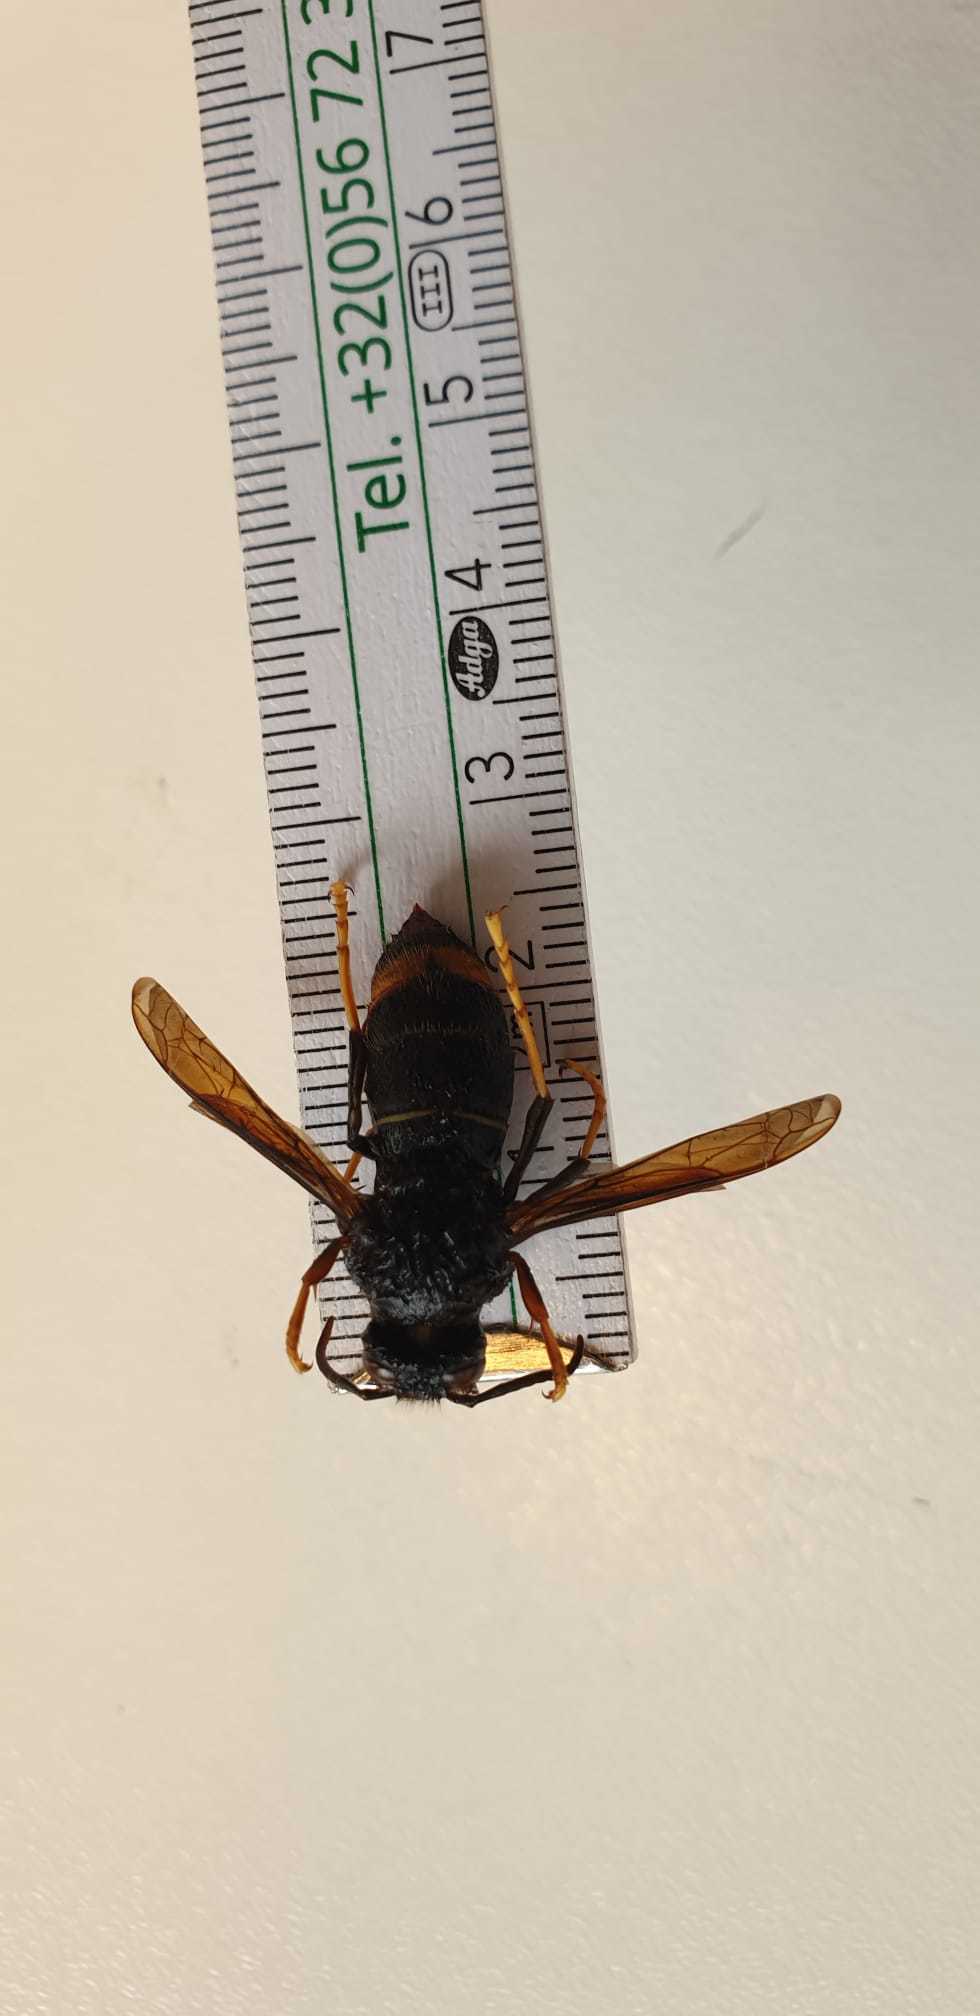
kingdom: Animalia
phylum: Arthropoda
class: Insecta
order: Hymenoptera
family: Vespidae
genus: Vespa
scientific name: Vespa velutina
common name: Asian hornet
